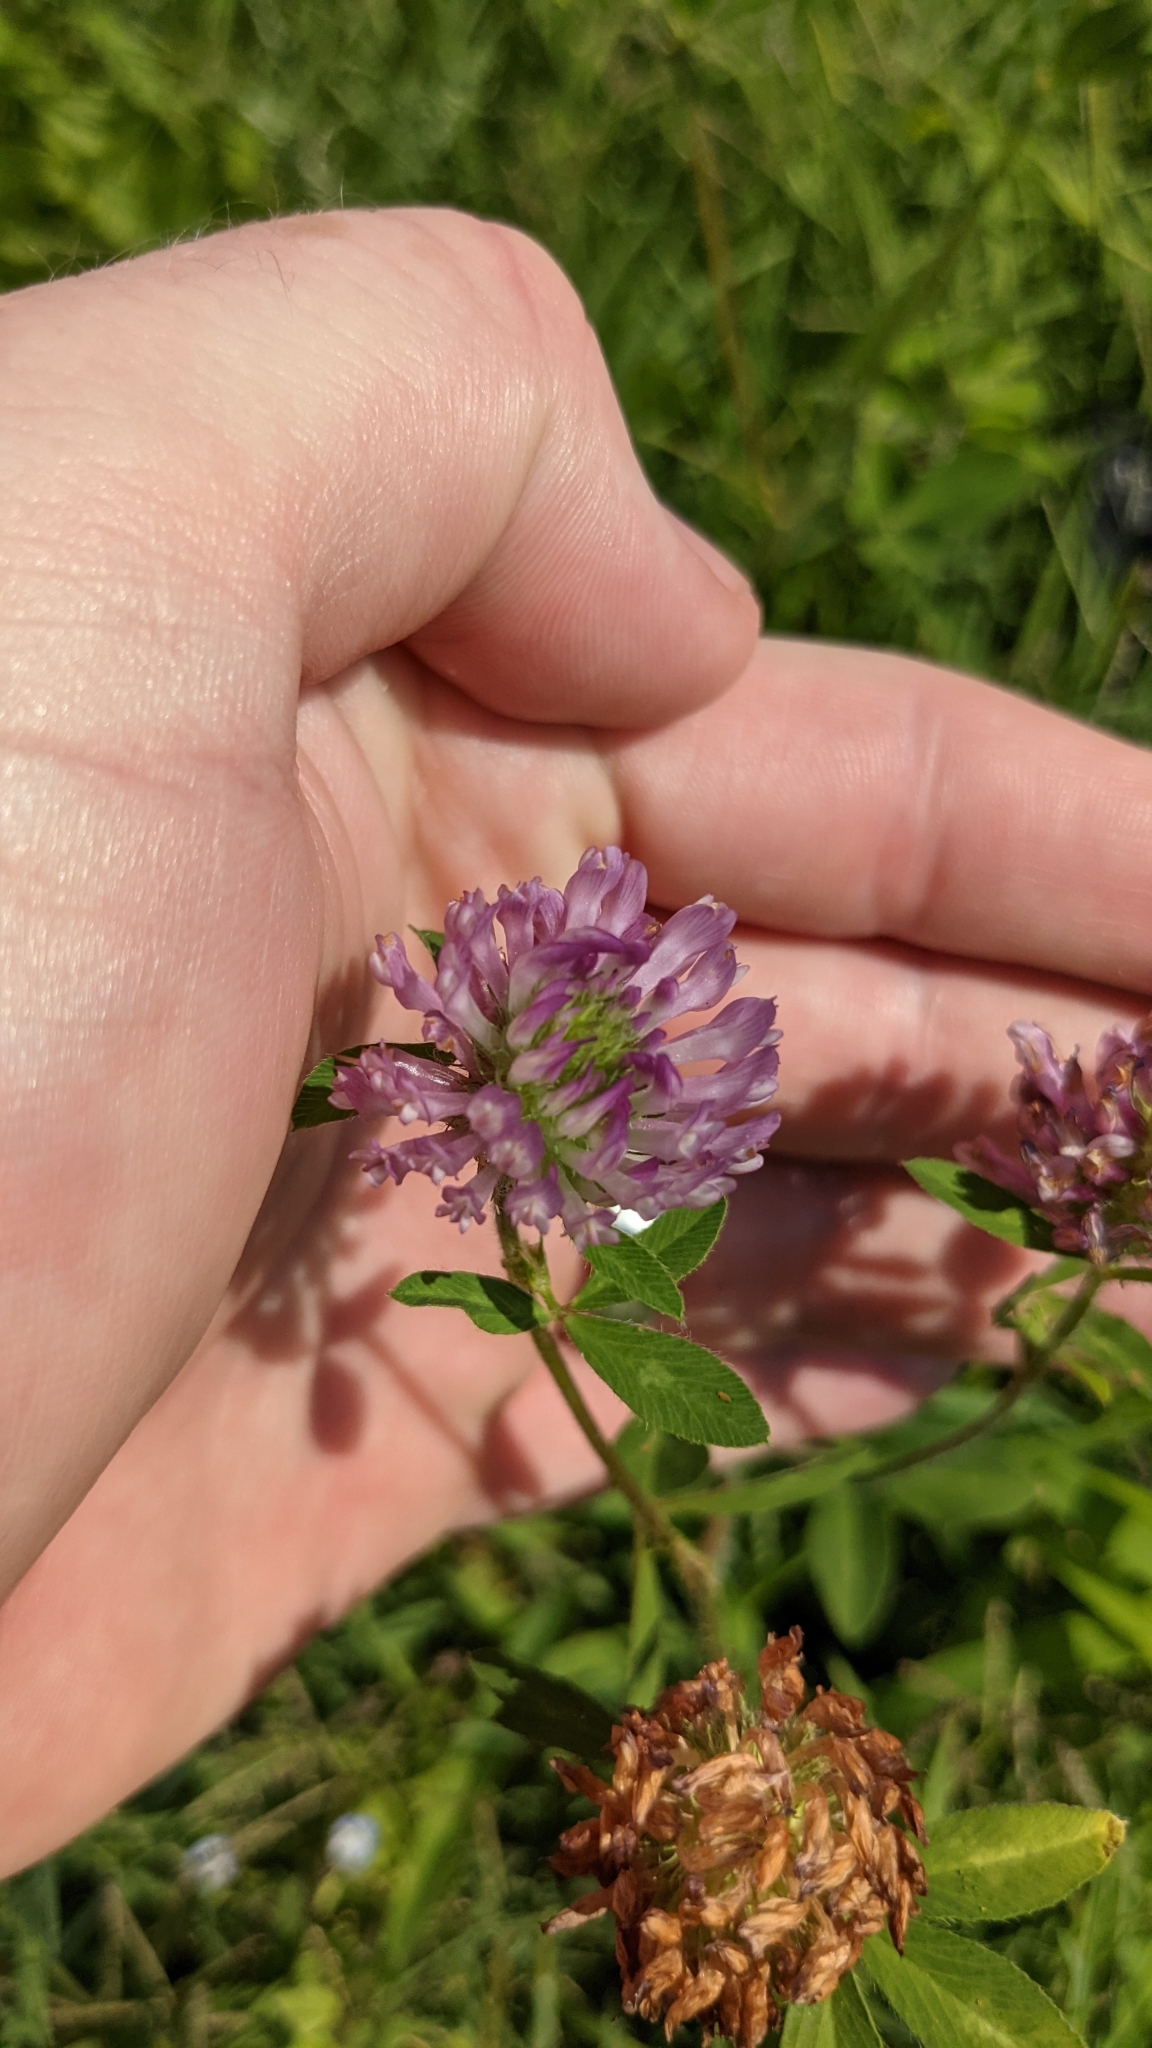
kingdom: Plantae
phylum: Tracheophyta
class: Magnoliopsida
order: Fabales
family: Fabaceae
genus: Trifolium
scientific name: Trifolium pratense
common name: Red clover
